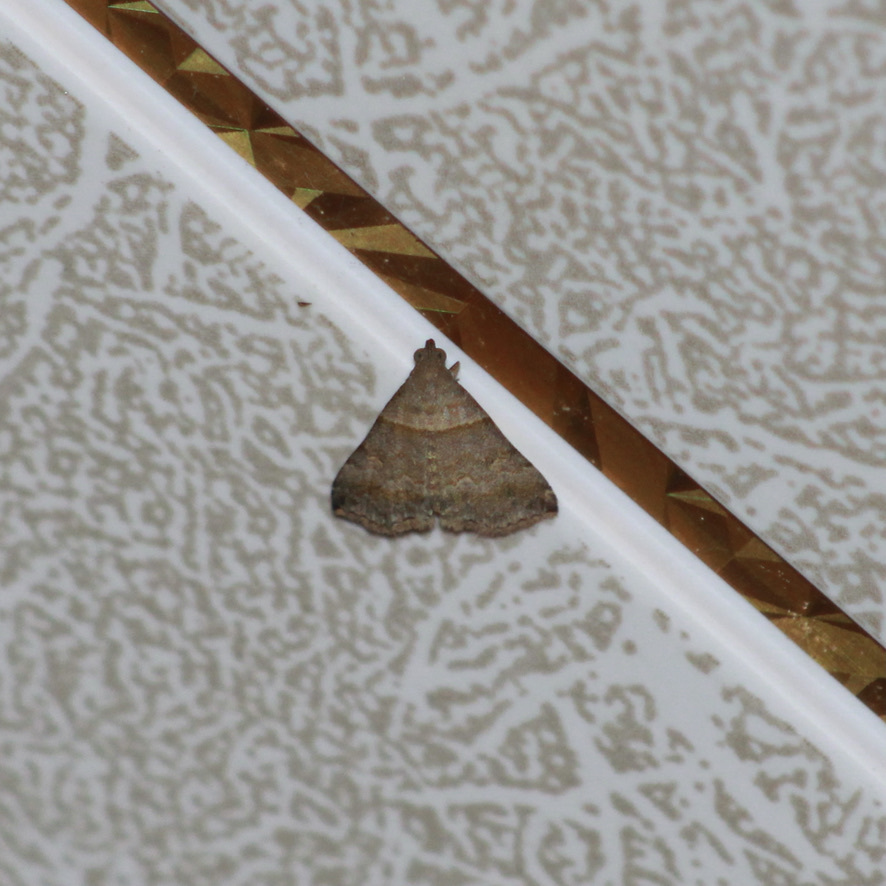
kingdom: Animalia
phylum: Arthropoda
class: Insecta
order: Lepidoptera
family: Erebidae
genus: Heterogramma
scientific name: Heterogramma circumflexalis
